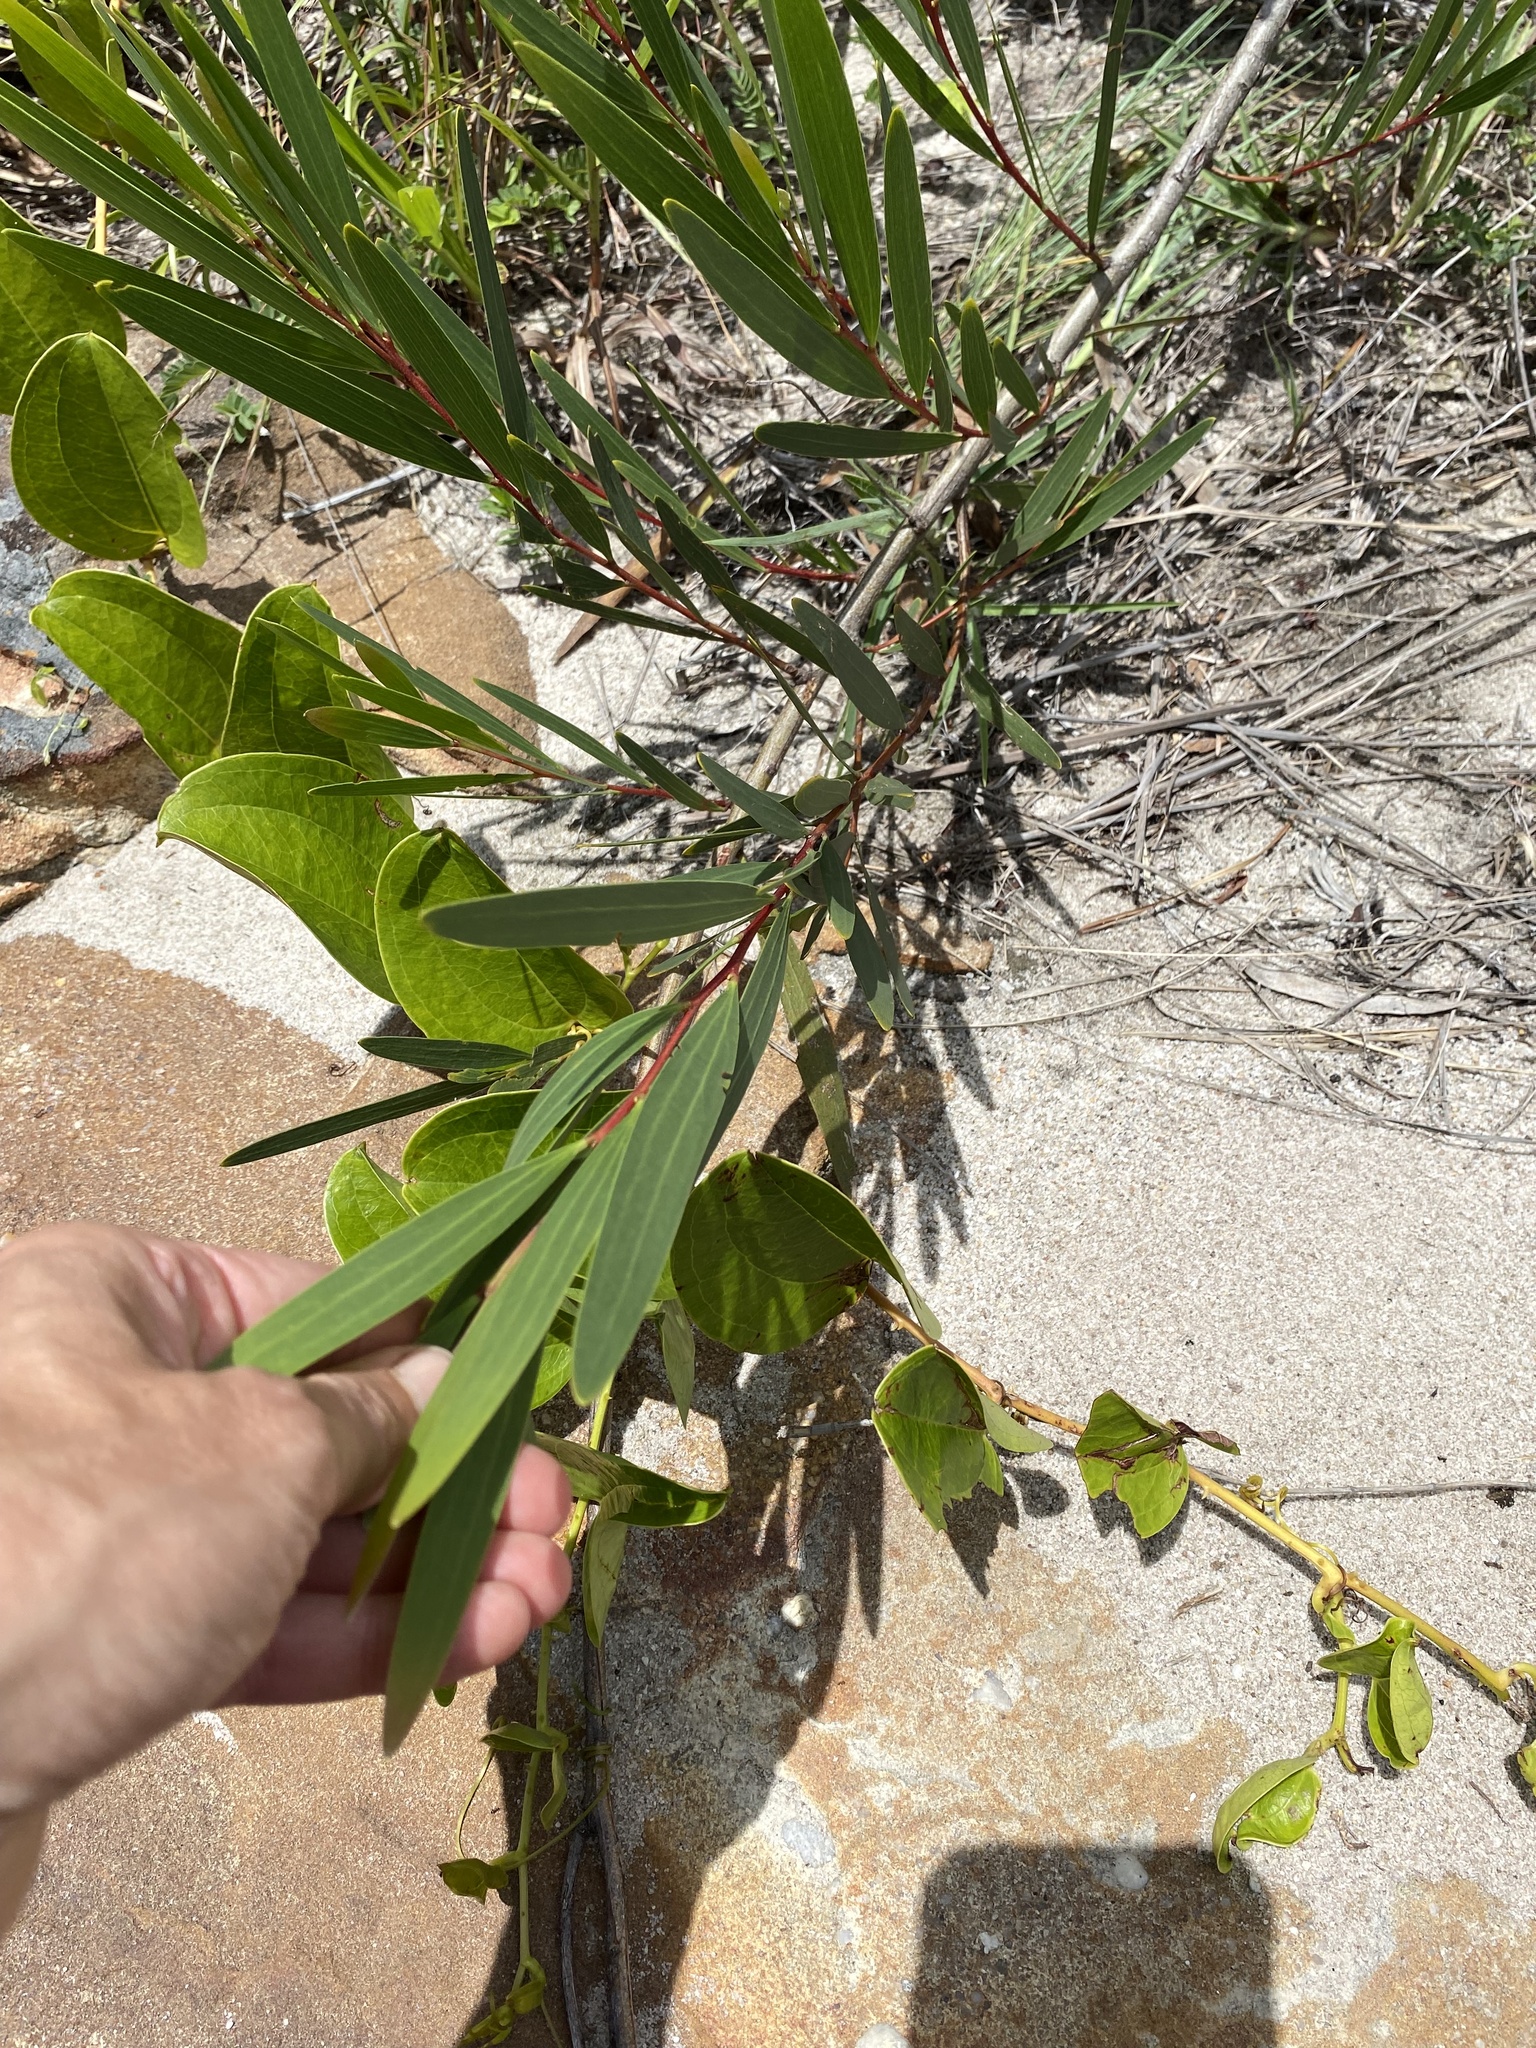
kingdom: Plantae
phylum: Tracheophyta
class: Magnoliopsida
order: Fabales
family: Fabaceae
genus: Acacia
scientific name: Acacia longifolia
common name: Sydney golden wattle
